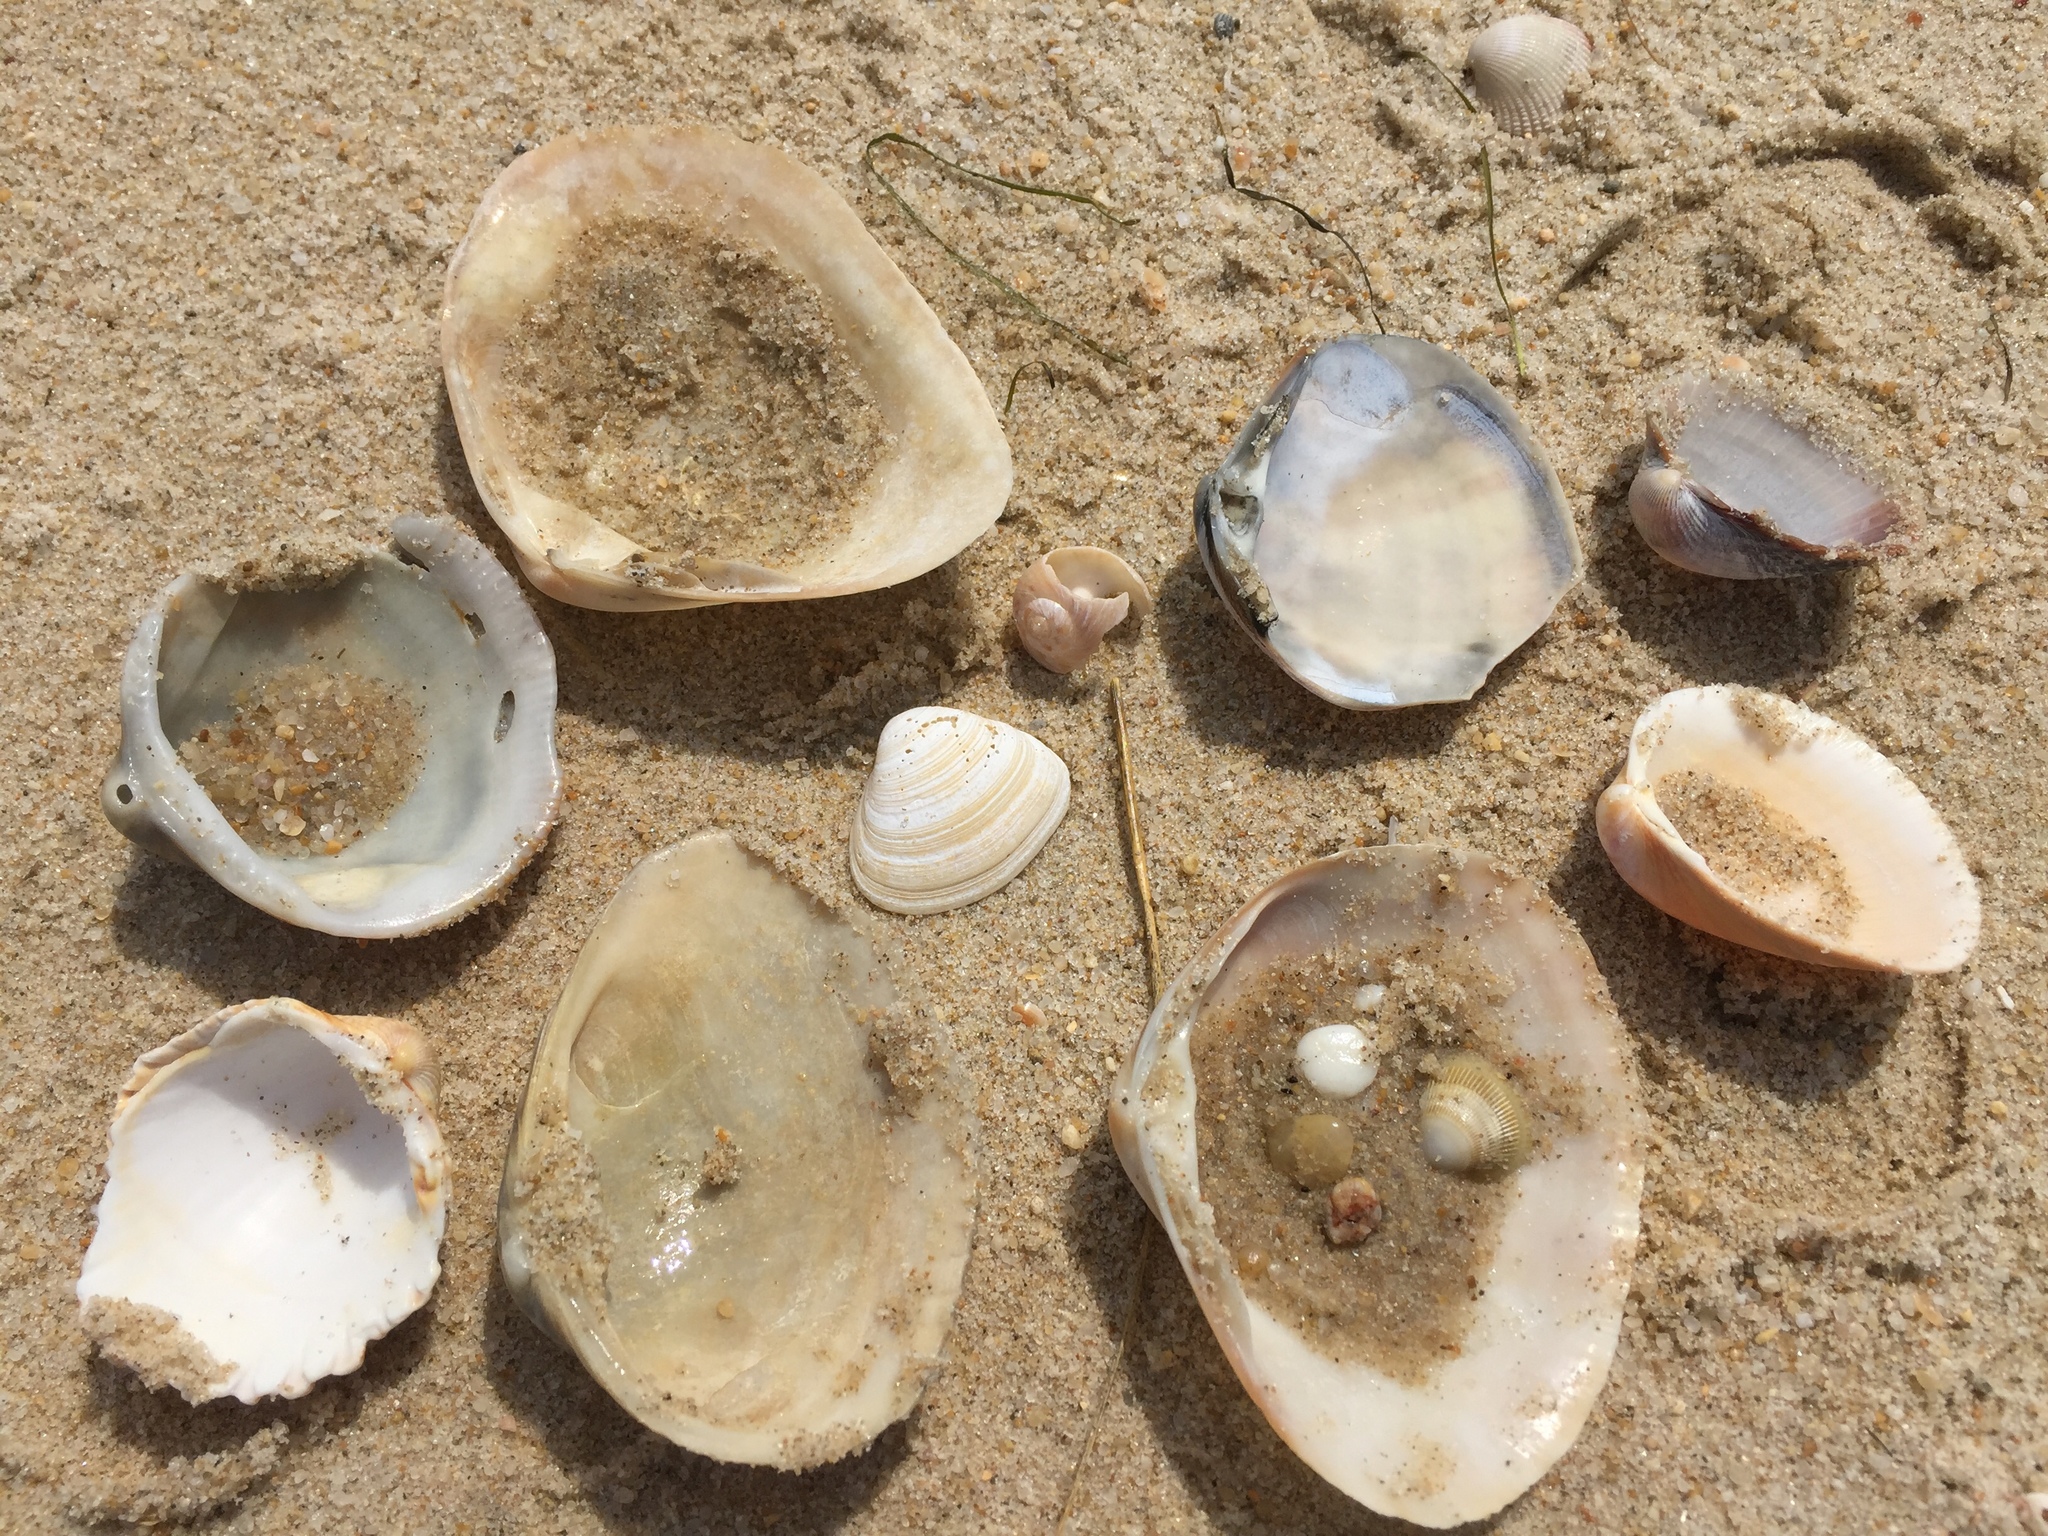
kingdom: Animalia
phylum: Mollusca
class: Bivalvia
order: Venerida
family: Mactridae
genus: Spisula
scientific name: Spisula solida
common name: Thick trough shell
